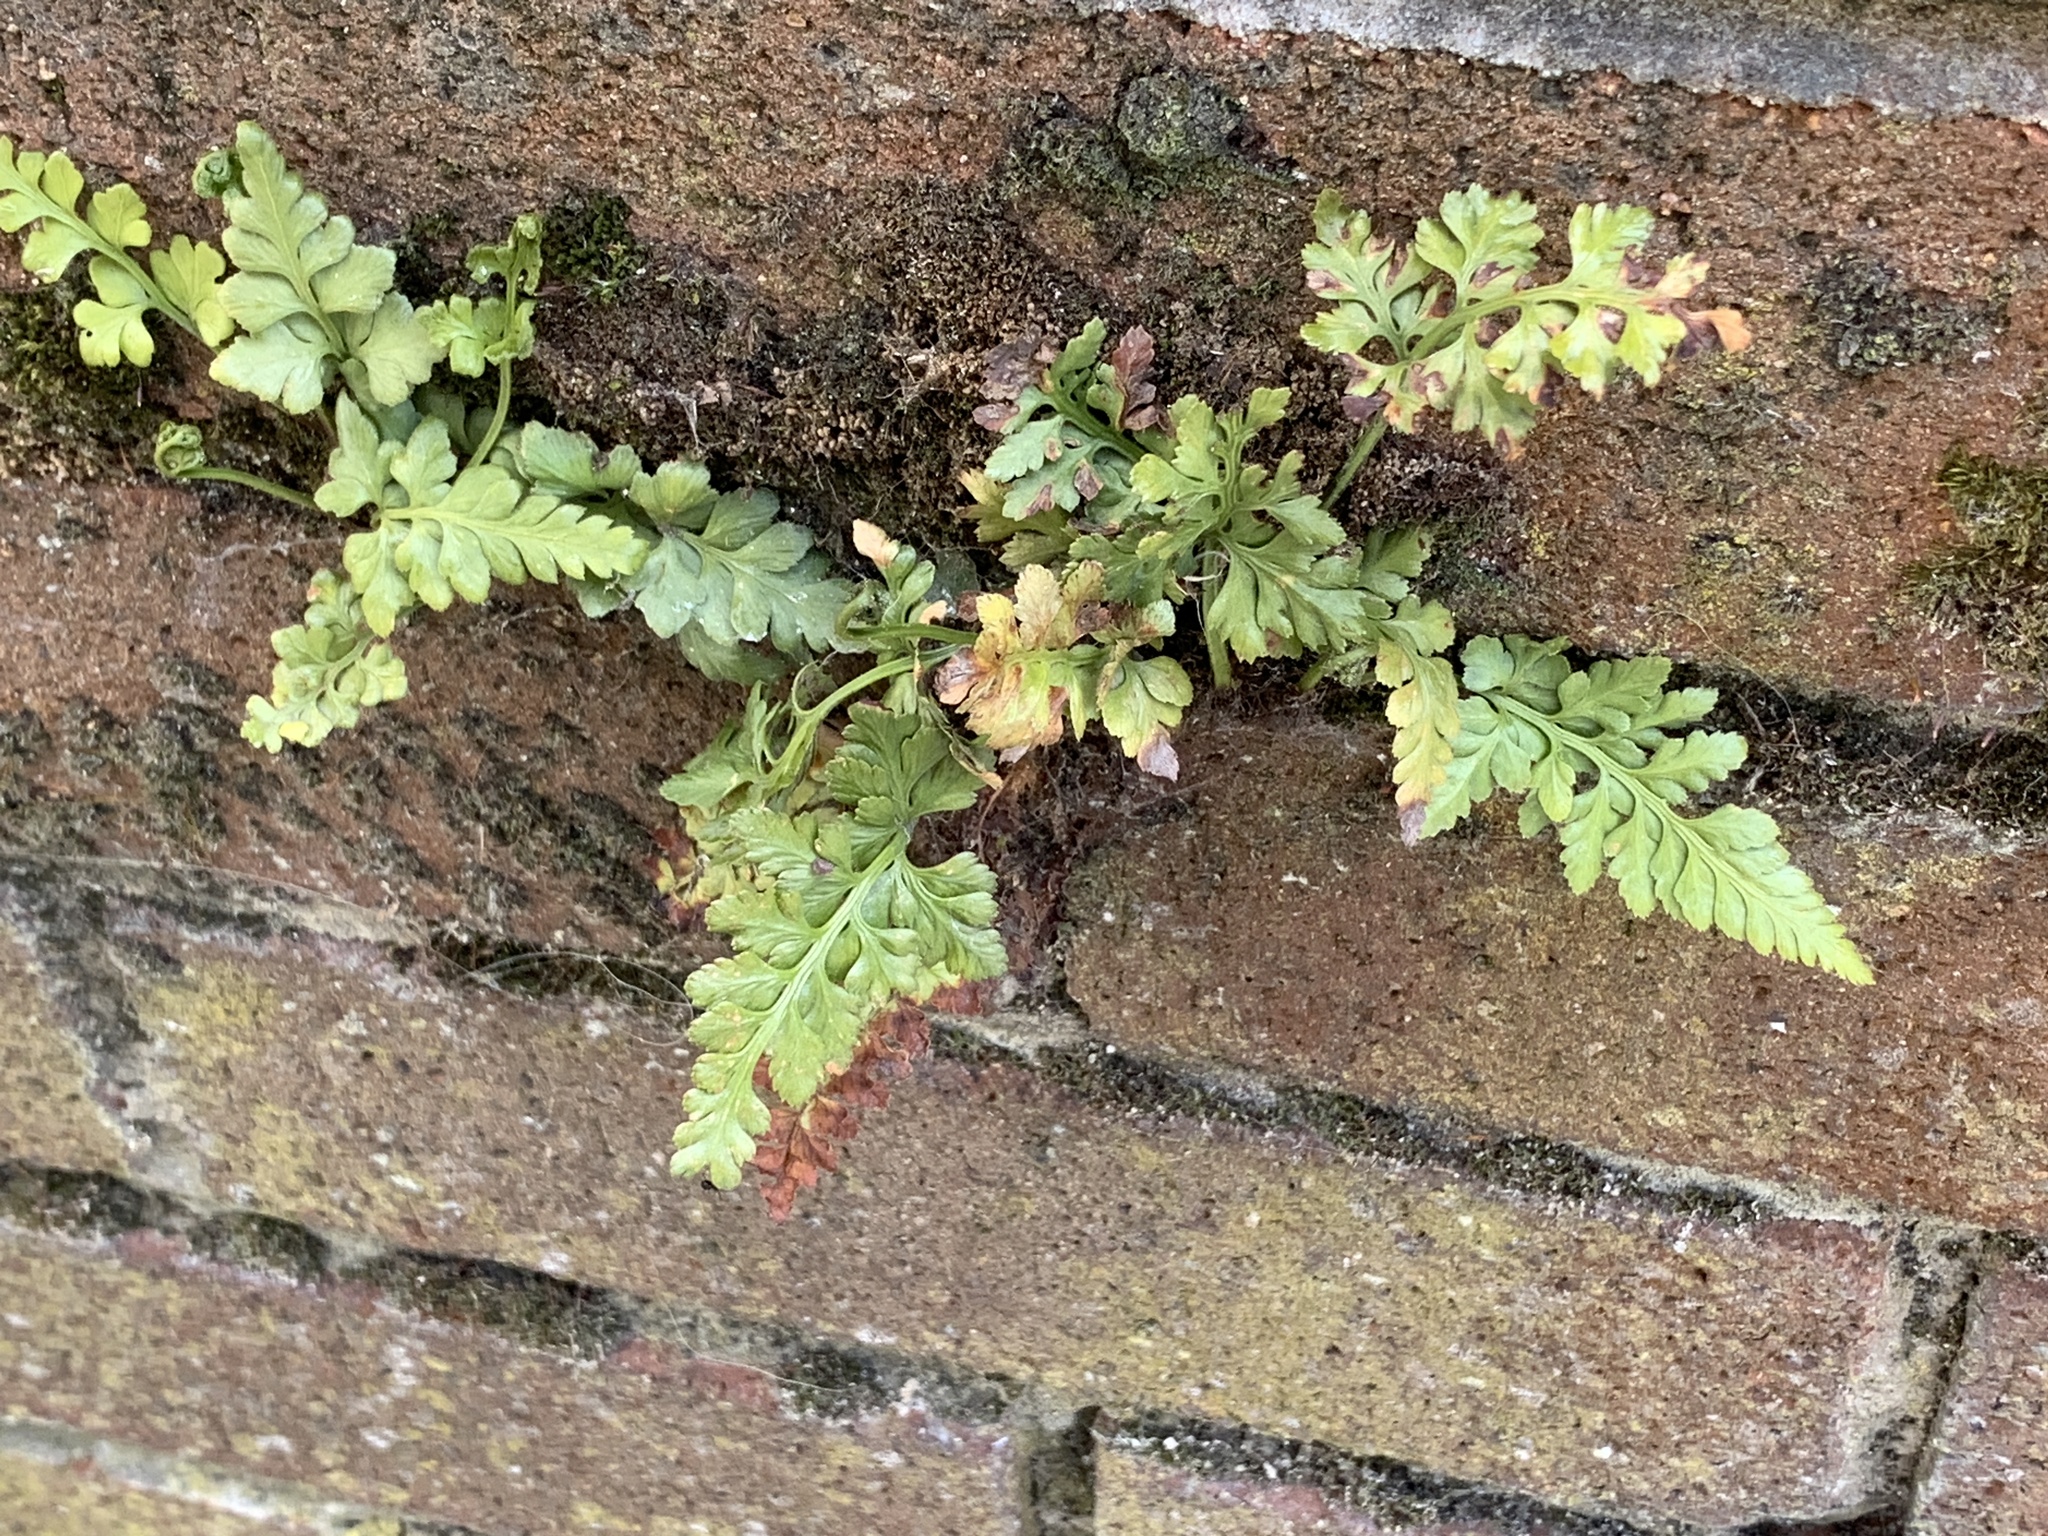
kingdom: Plantae
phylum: Tracheophyta
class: Polypodiopsida
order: Polypodiales
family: Aspleniaceae
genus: Asplenium
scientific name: Asplenium adiantum-nigrum
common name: Black spleenwort
